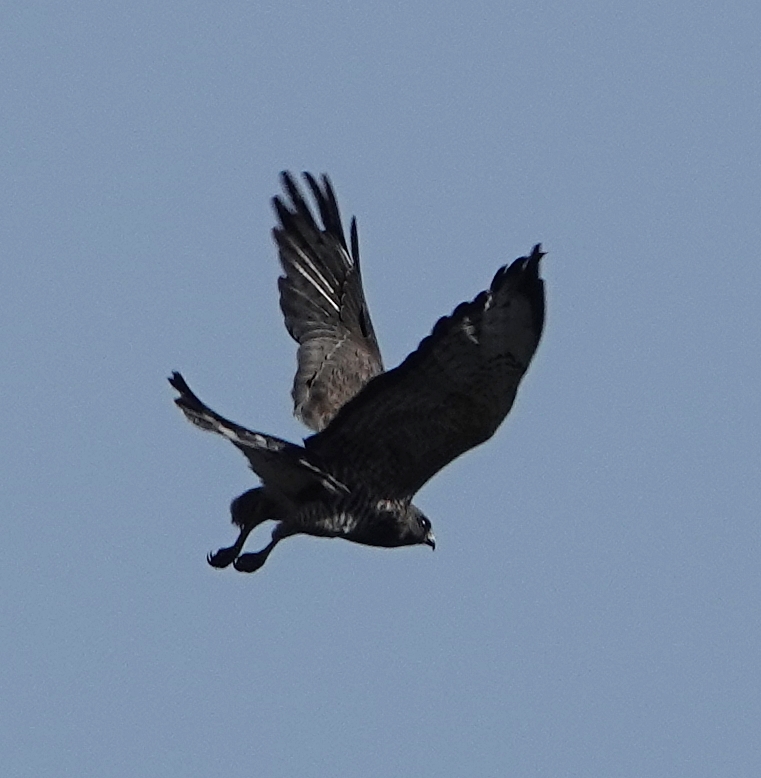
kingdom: Animalia
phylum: Chordata
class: Aves
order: Accipitriformes
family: Accipitridae
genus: Buteo
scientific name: Buteo platypterus
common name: Broad-winged hawk
